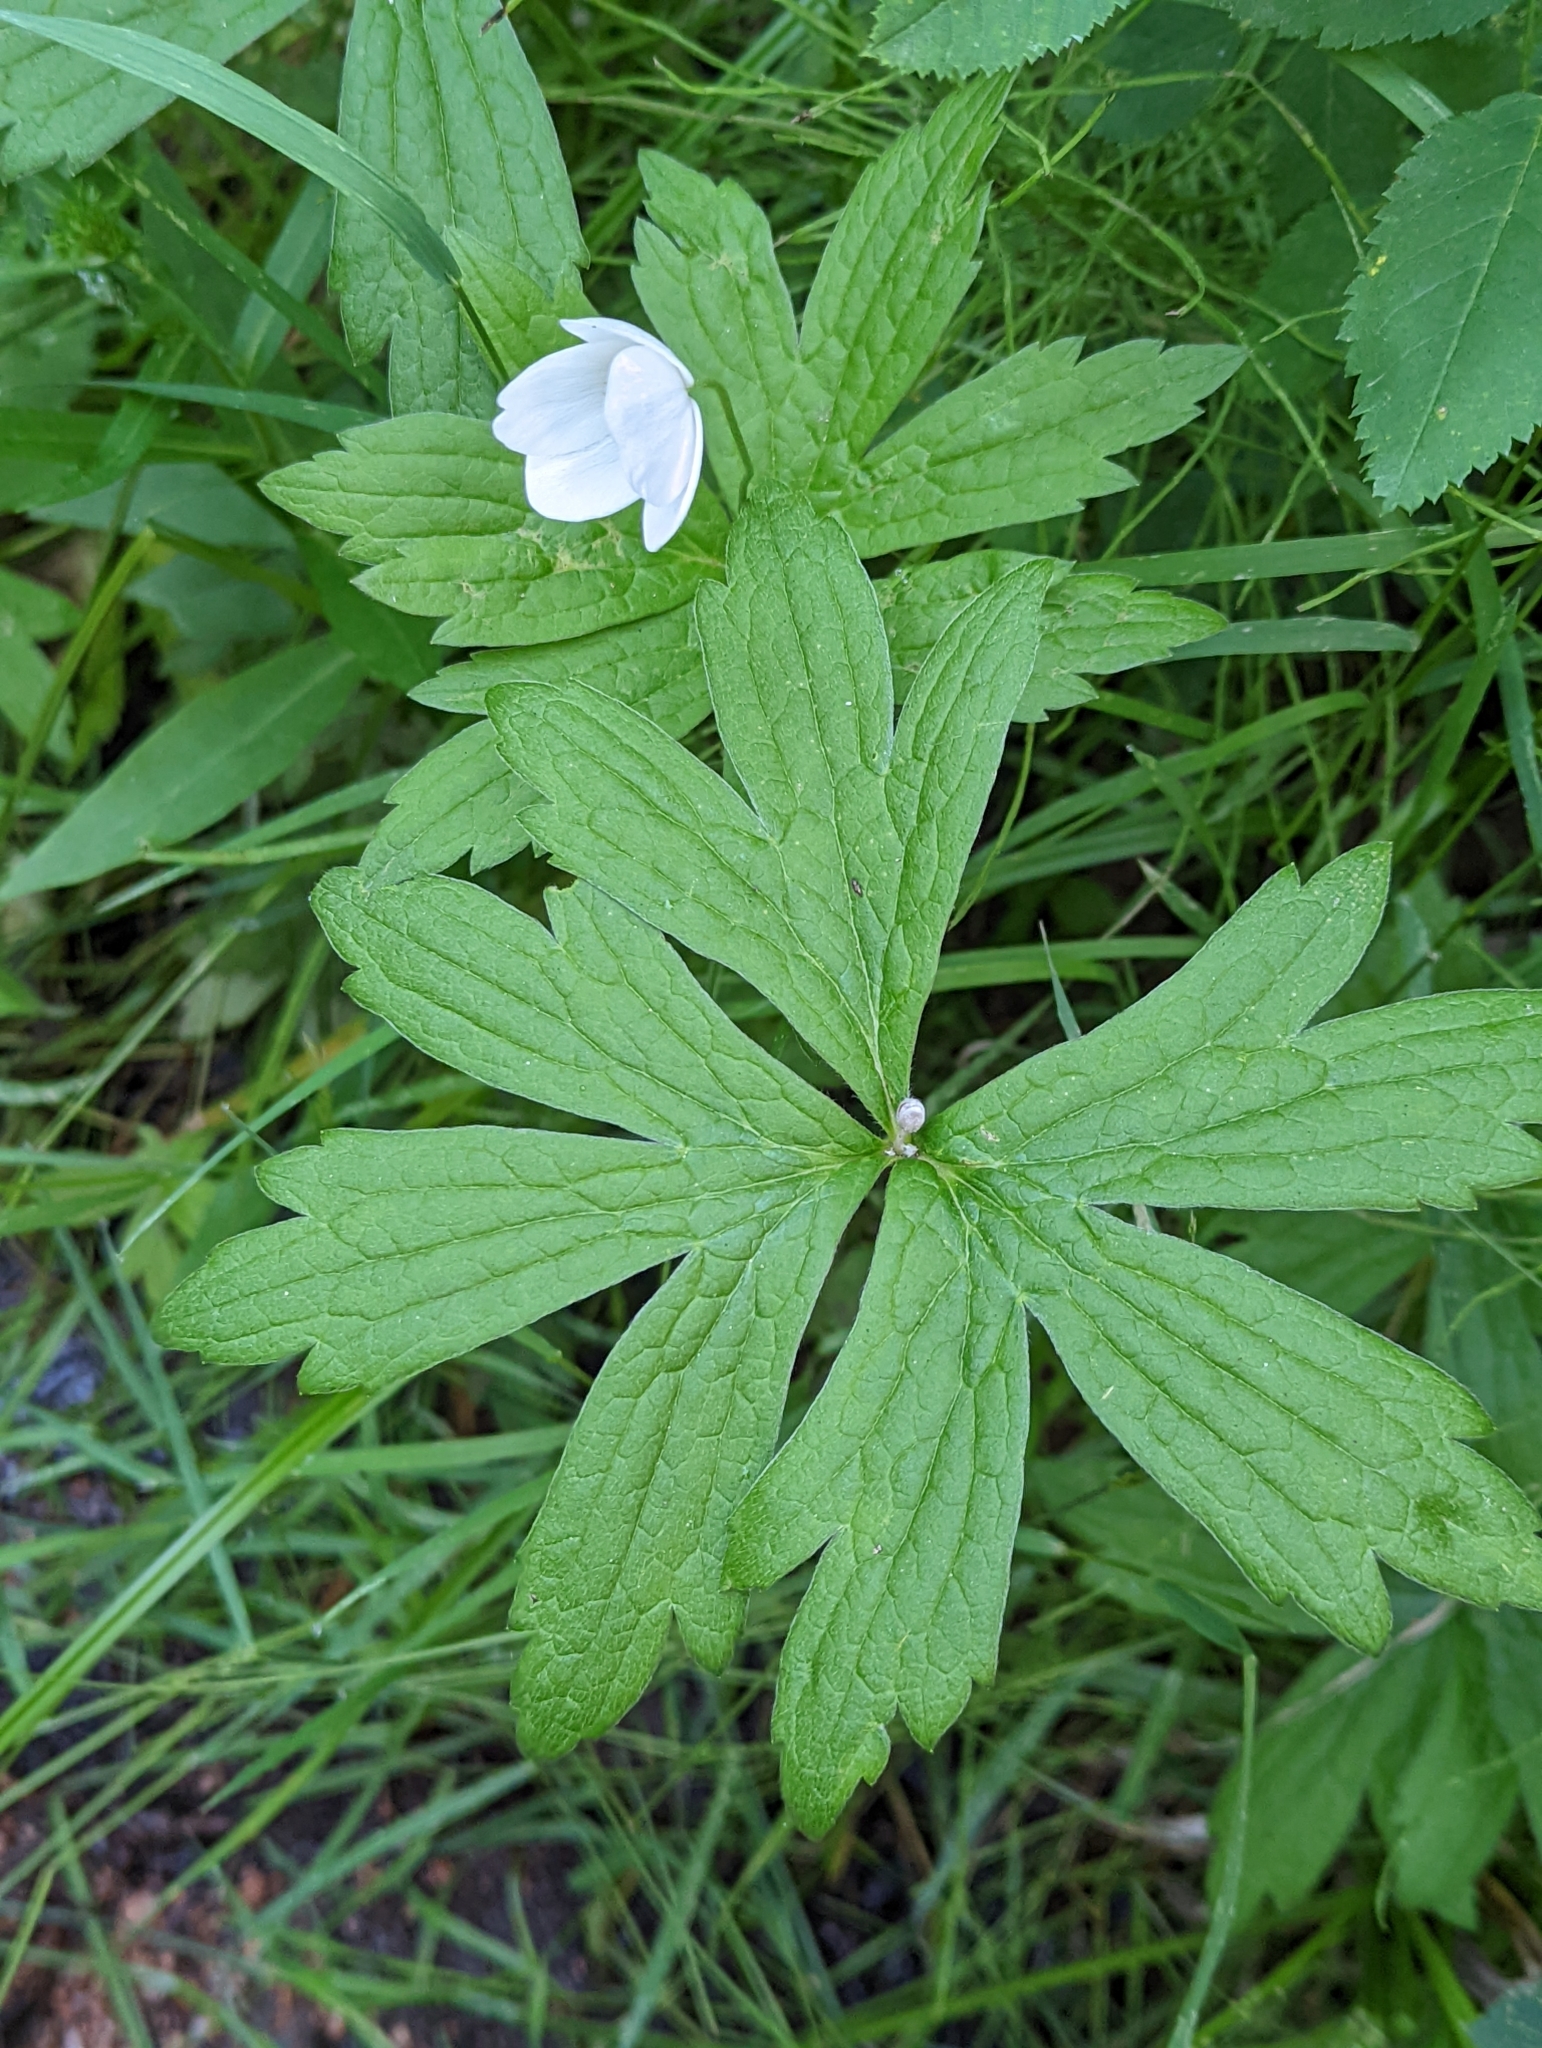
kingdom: Plantae
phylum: Tracheophyta
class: Magnoliopsida
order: Ranunculales
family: Ranunculaceae
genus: Anemonastrum
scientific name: Anemonastrum canadense
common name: Canada anemone
